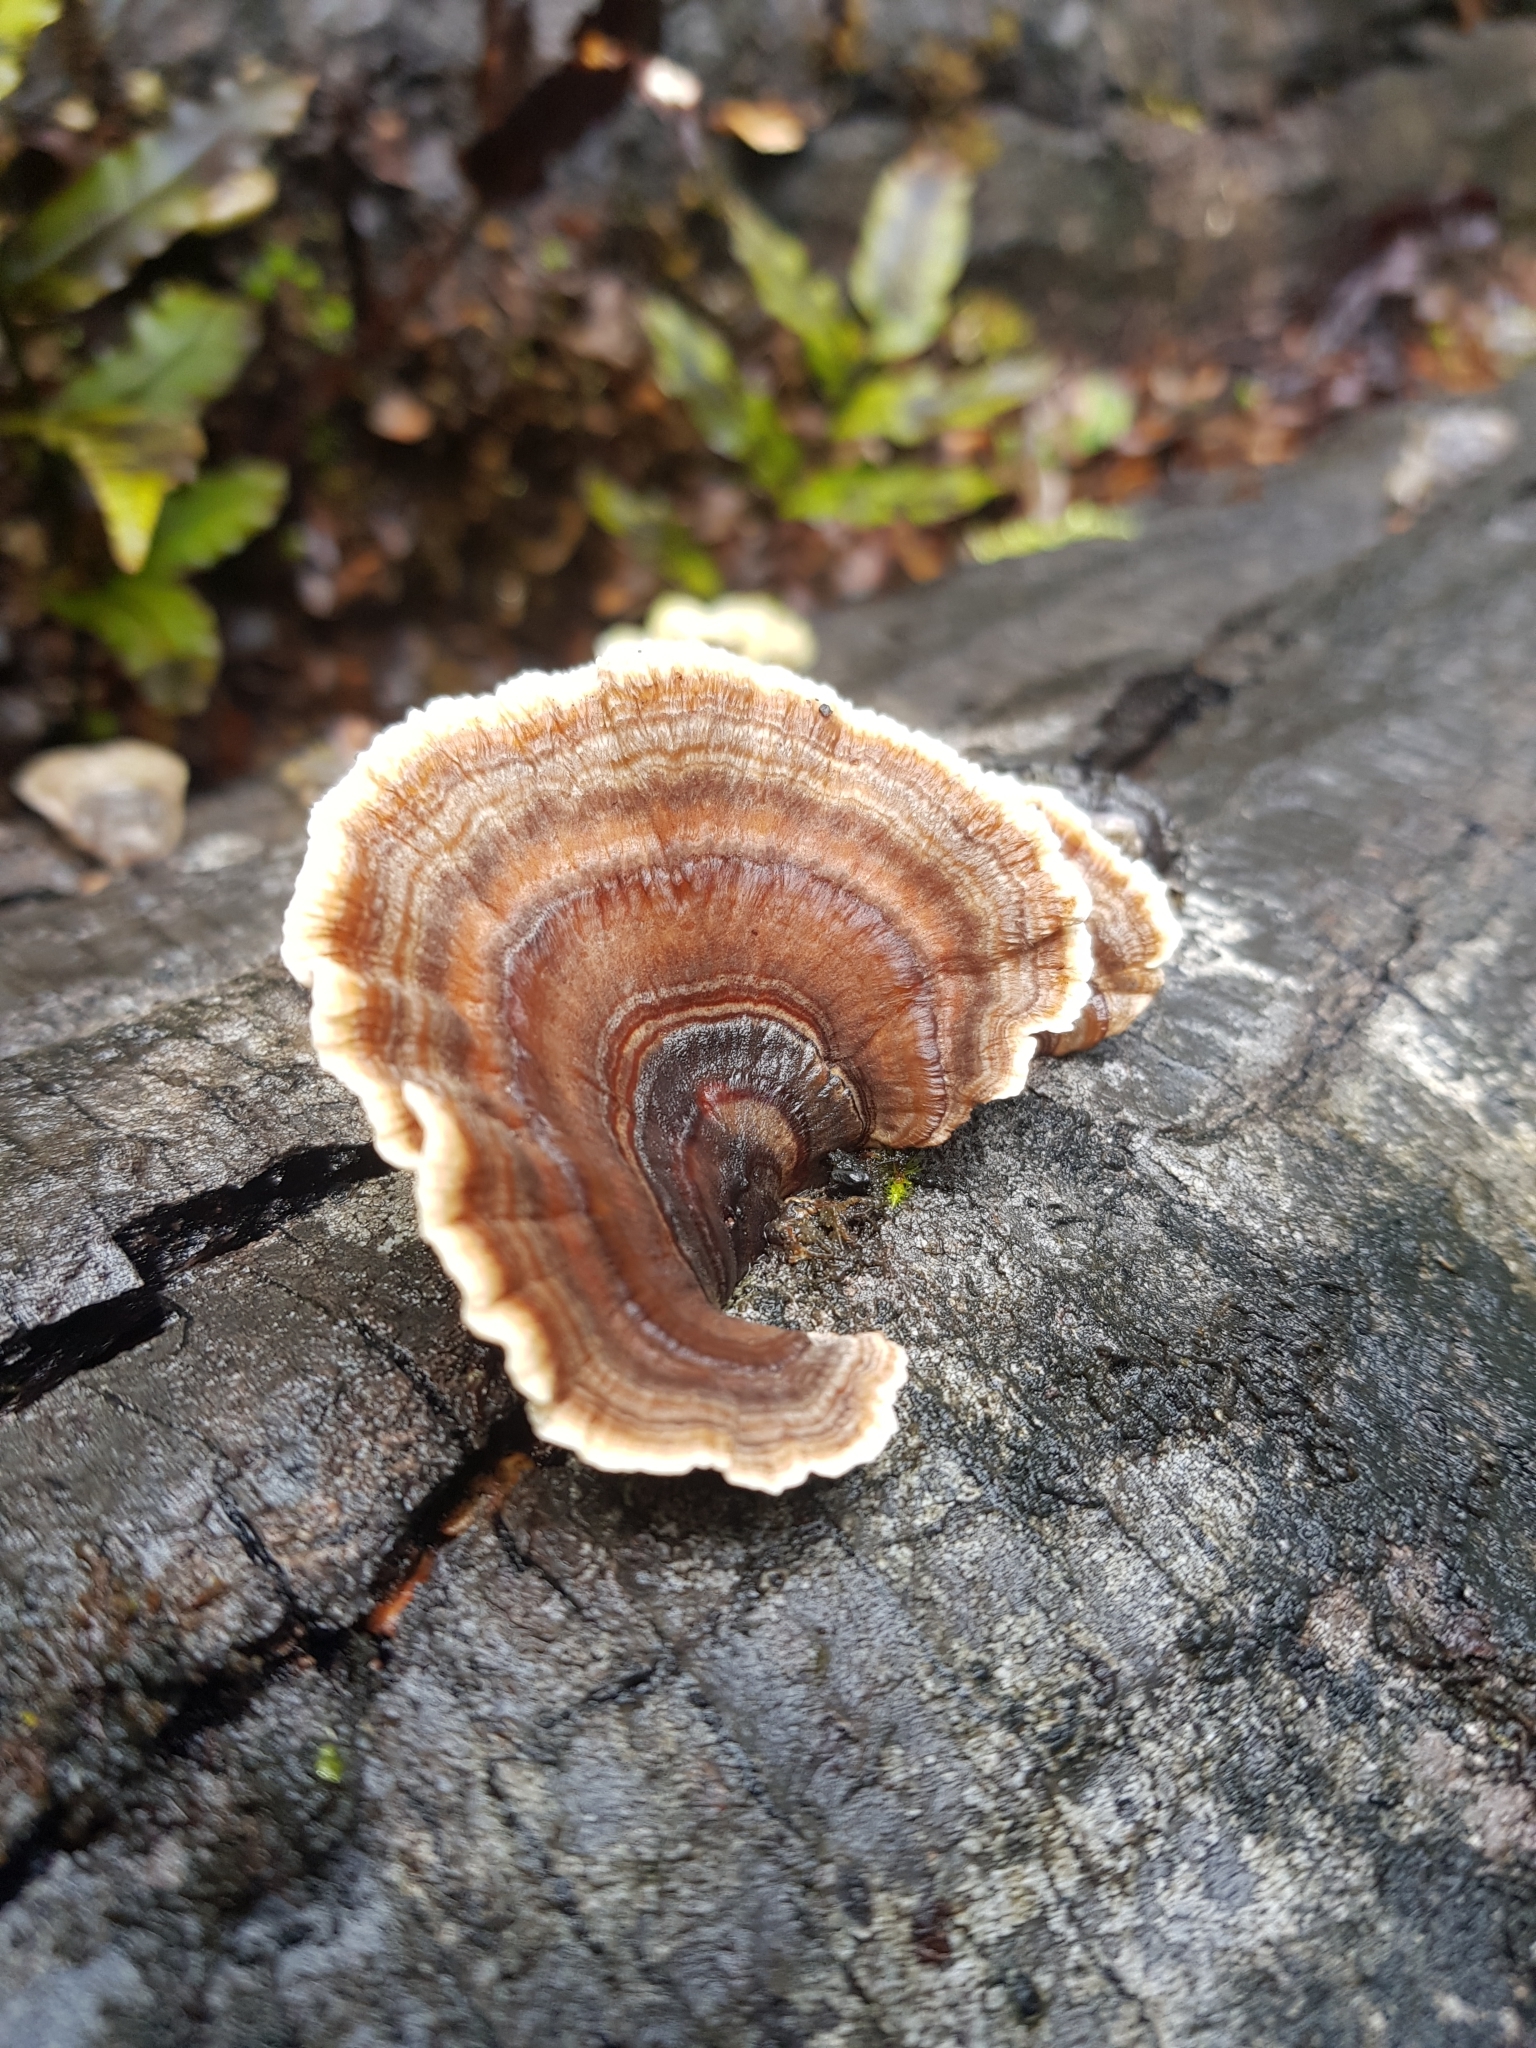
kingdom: Fungi
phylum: Basidiomycota
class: Agaricomycetes
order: Polyporales
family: Polyporaceae
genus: Trametes
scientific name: Trametes versicolor
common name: Turkeytail
